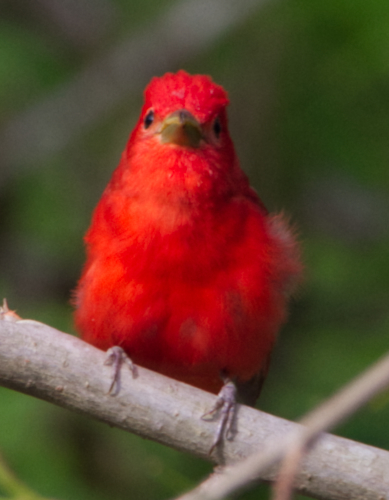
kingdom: Animalia
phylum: Chordata
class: Aves
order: Passeriformes
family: Cardinalidae
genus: Piranga
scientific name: Piranga rubra
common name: Summer tanager
